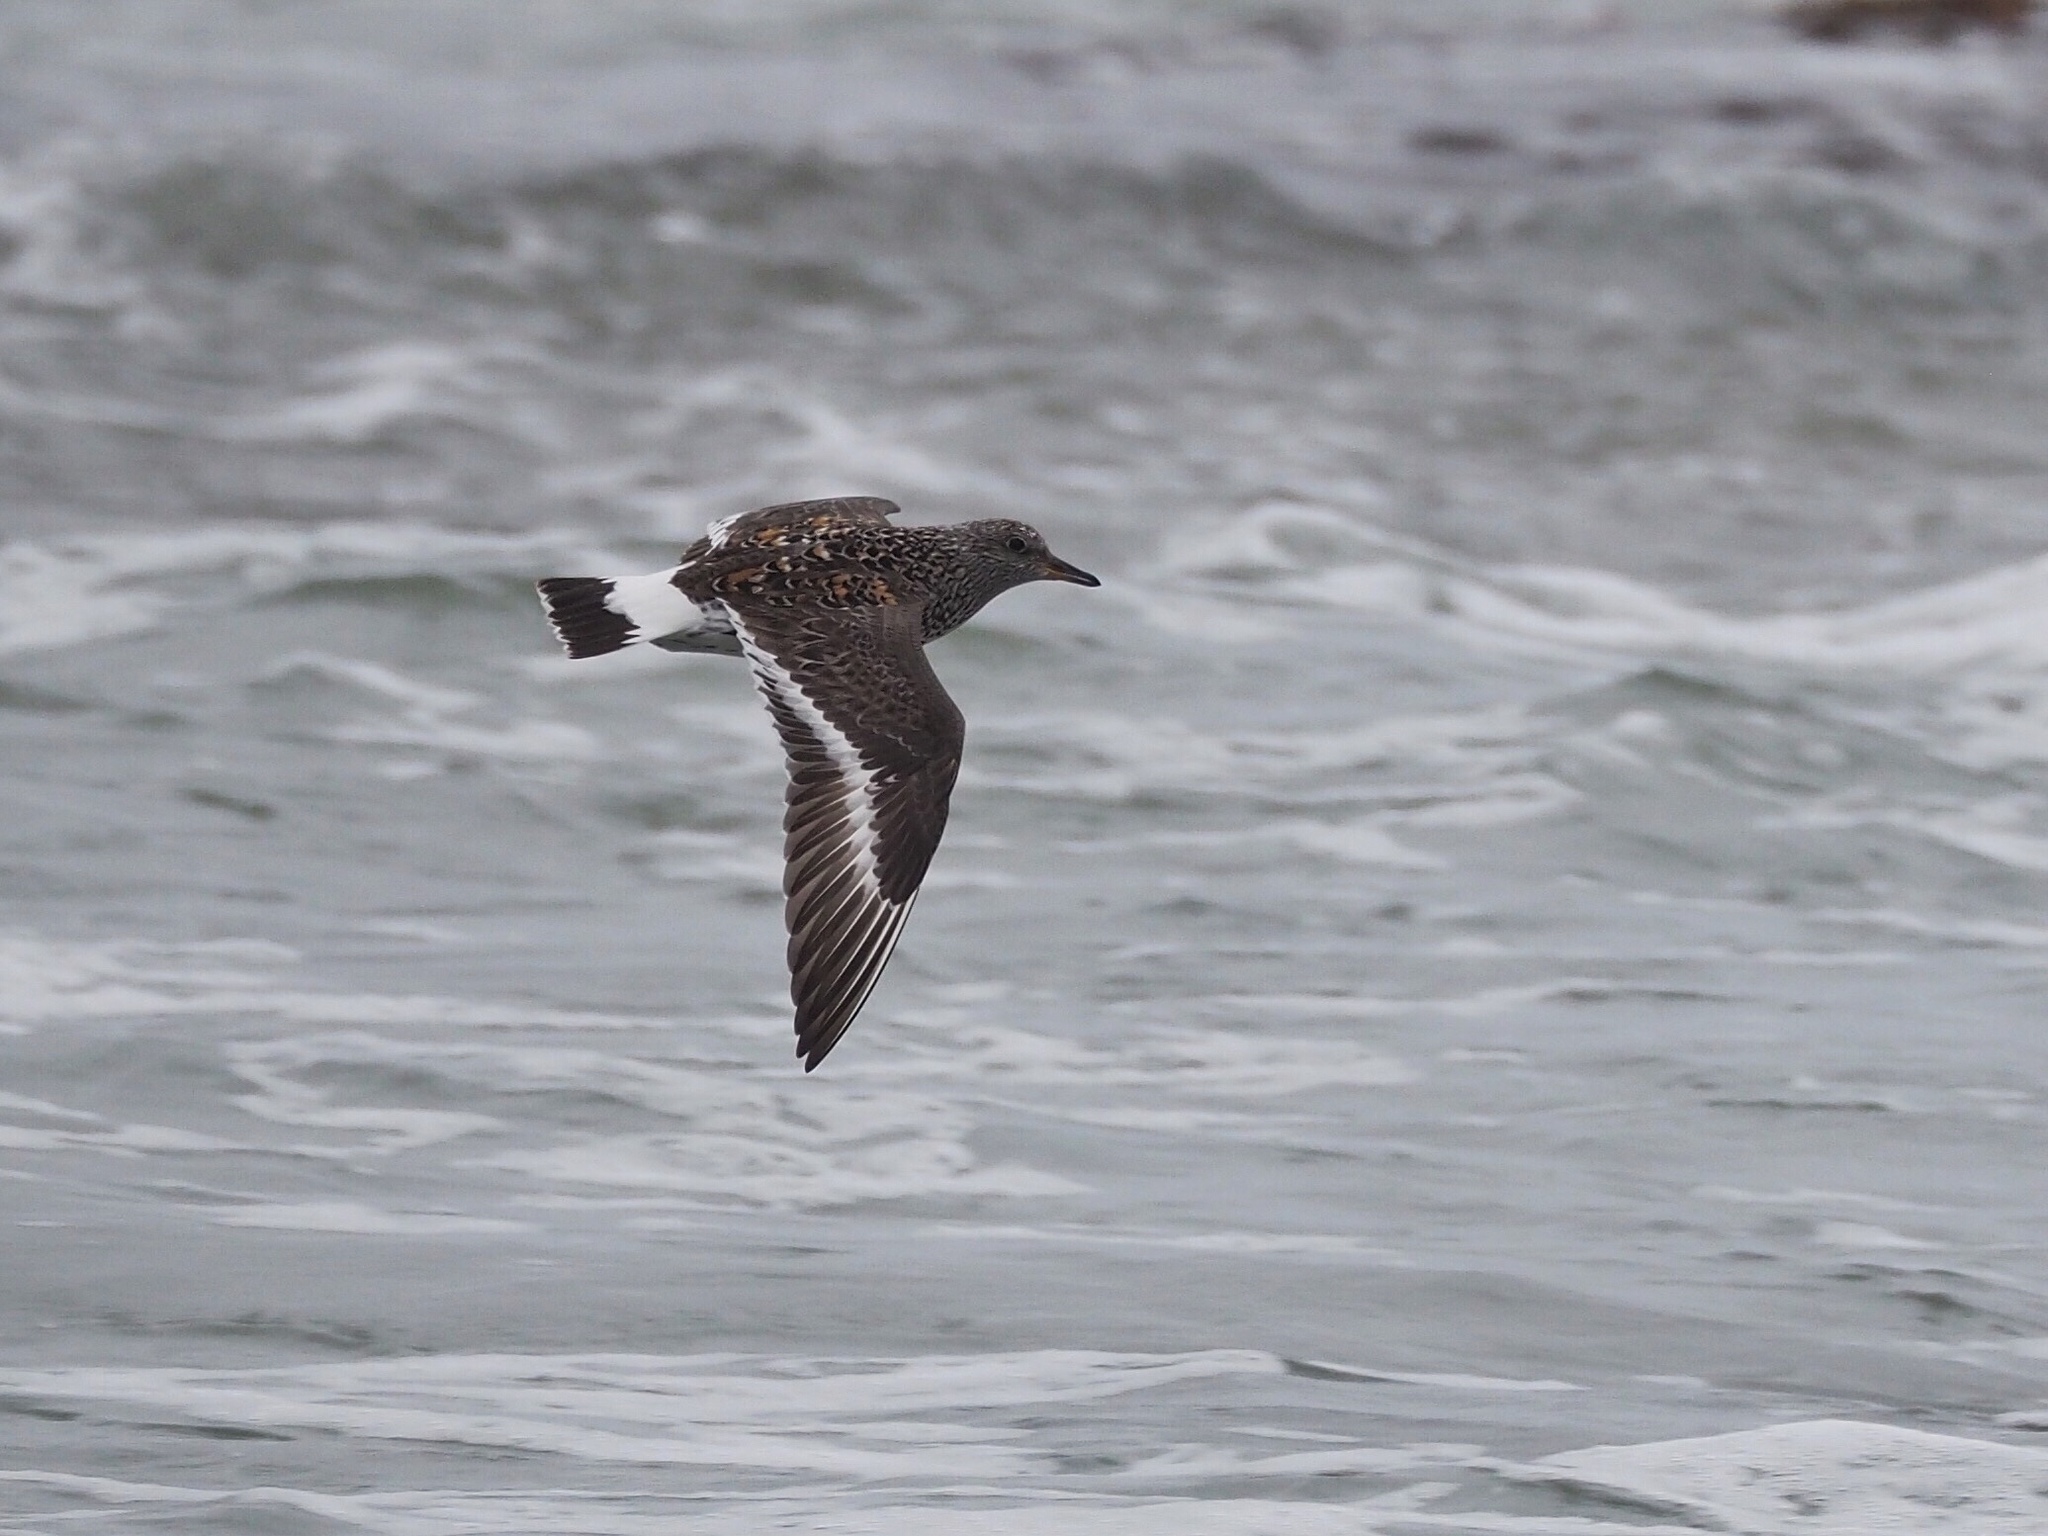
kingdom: Animalia
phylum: Chordata
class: Aves
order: Charadriiformes
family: Scolopacidae
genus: Calidris
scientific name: Calidris virgata
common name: Surfbird
